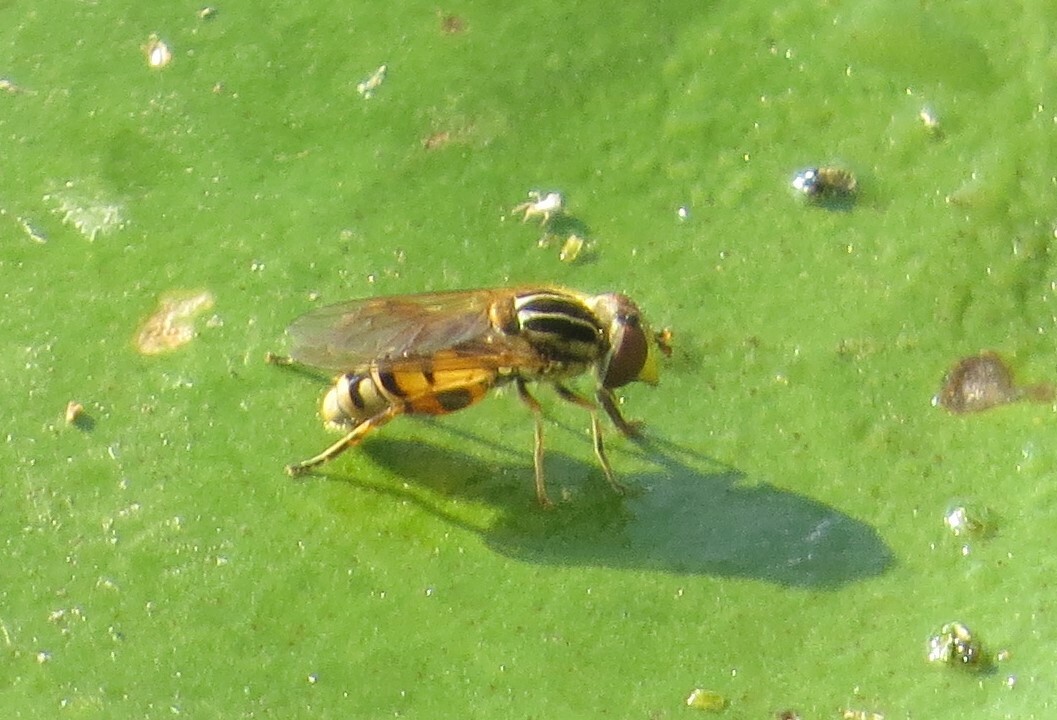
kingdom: Animalia
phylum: Arthropoda
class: Insecta
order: Diptera
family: Syrphidae
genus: Eurimyia
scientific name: Eurimyia stipatus
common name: Long-nosed swamp fly
